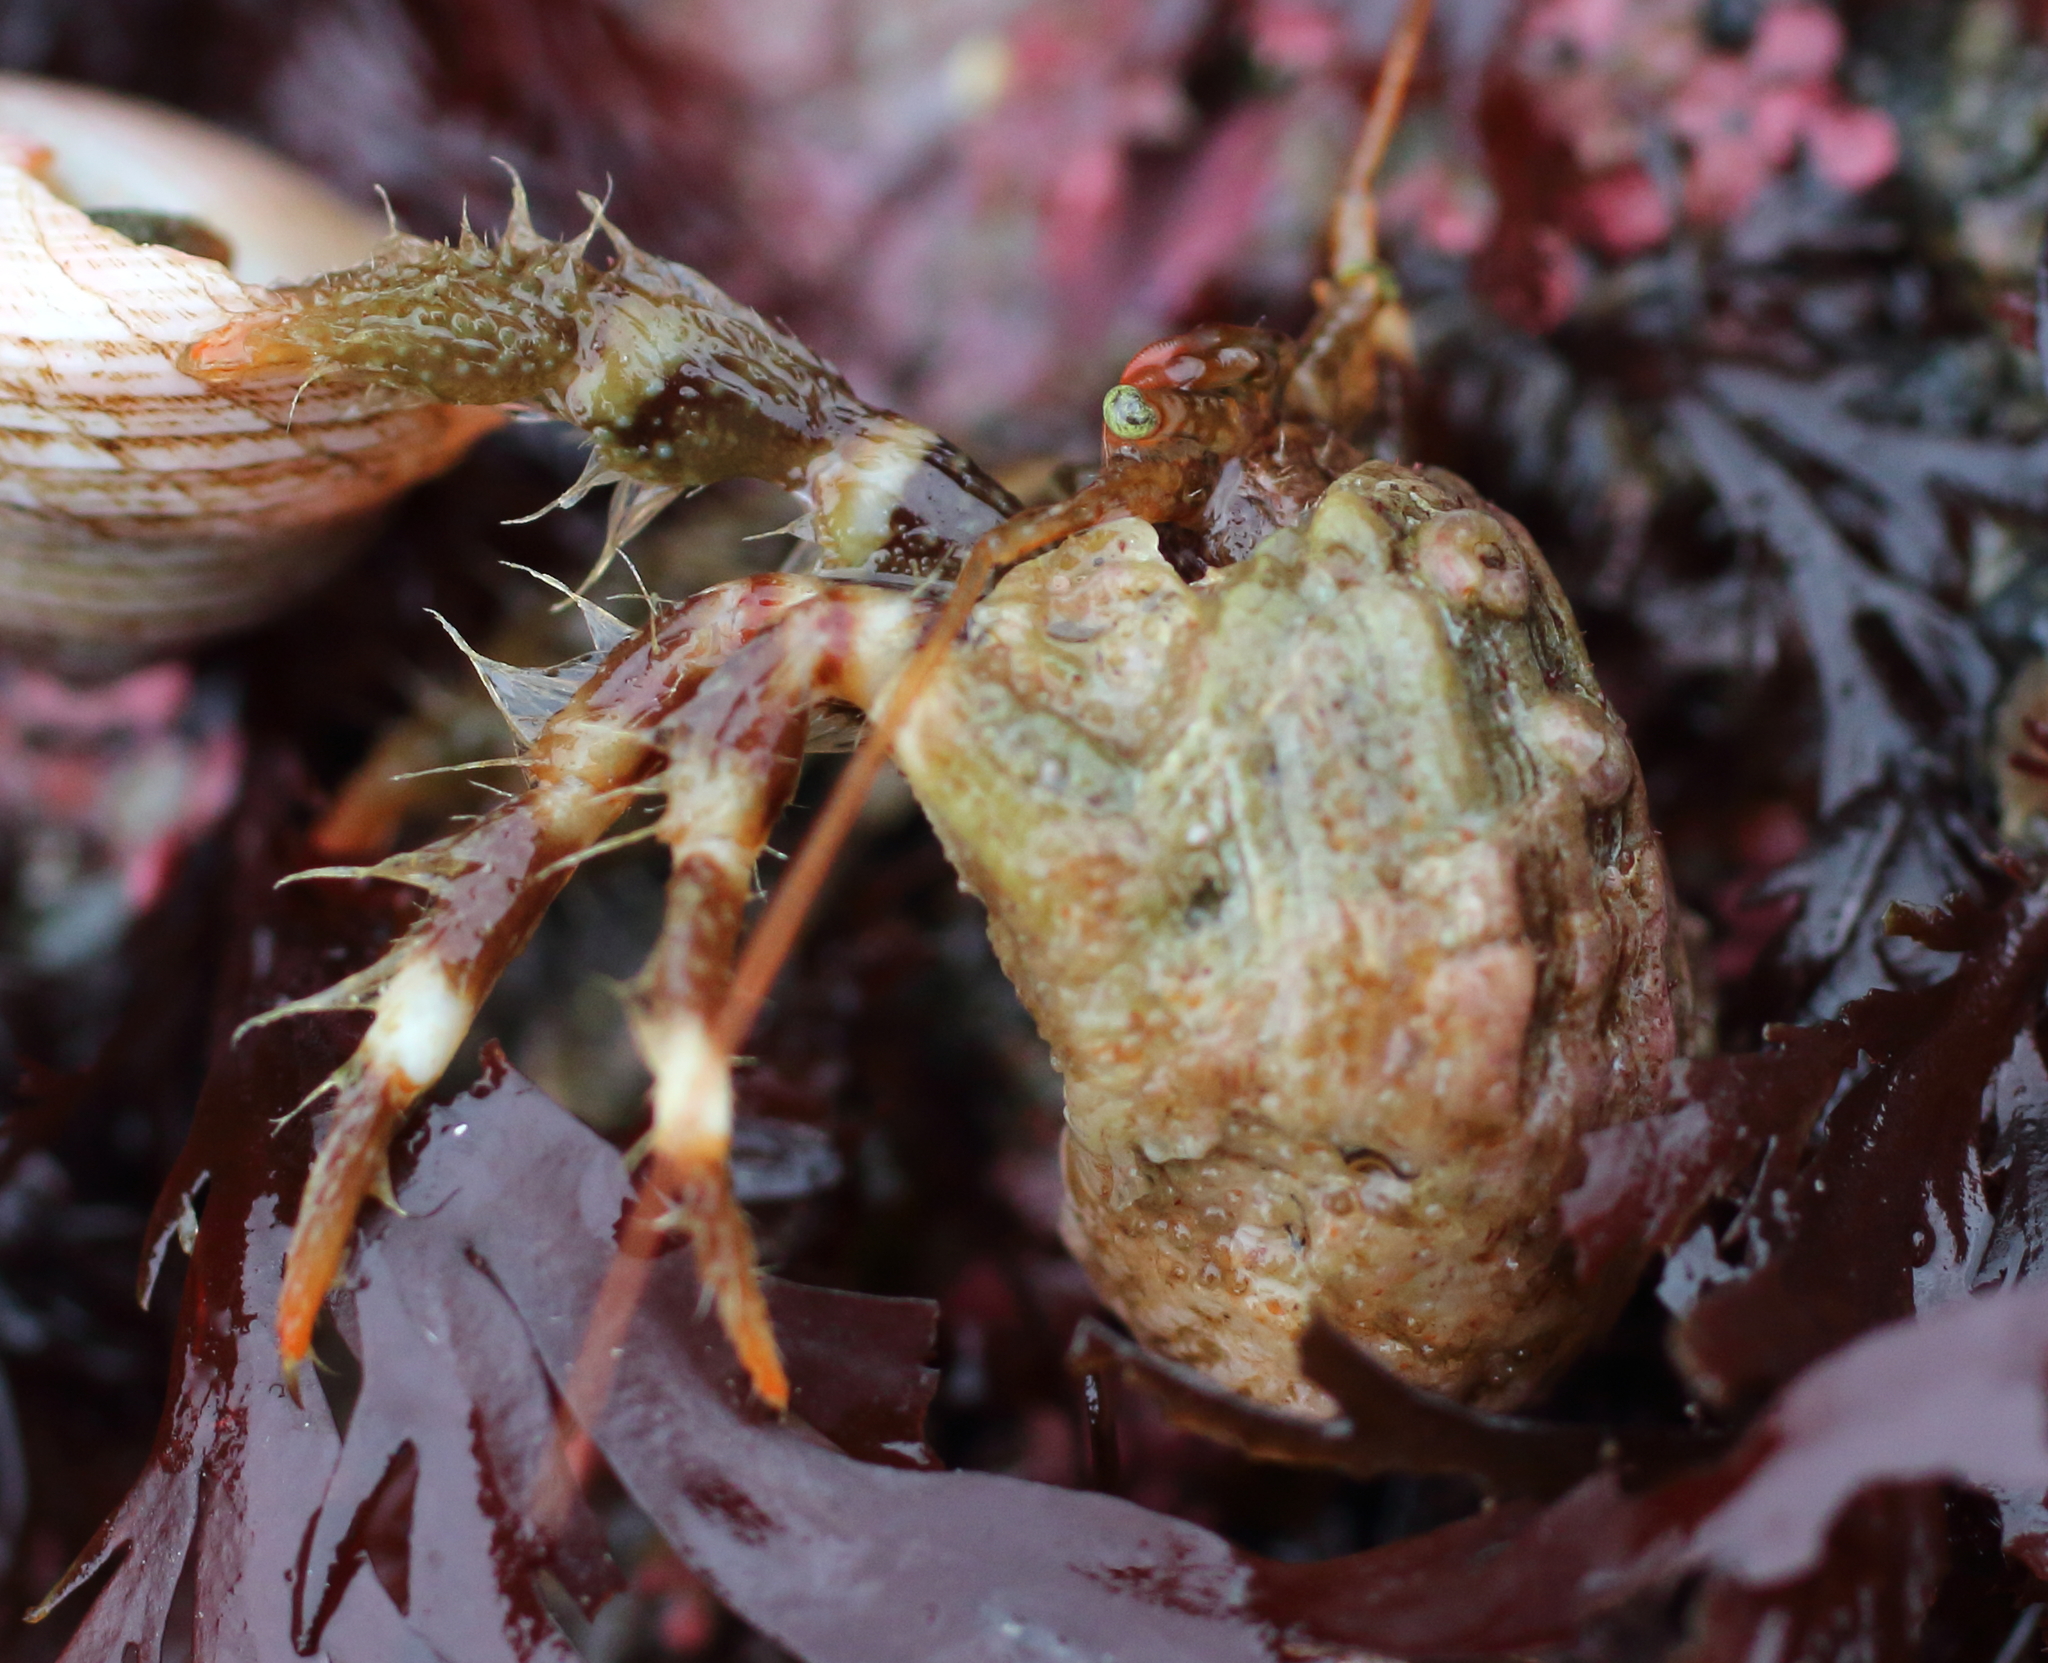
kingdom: Animalia
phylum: Arthropoda
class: Malacostraca
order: Decapoda
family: Paguridae
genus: Pagurus
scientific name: Pagurus caurinus
